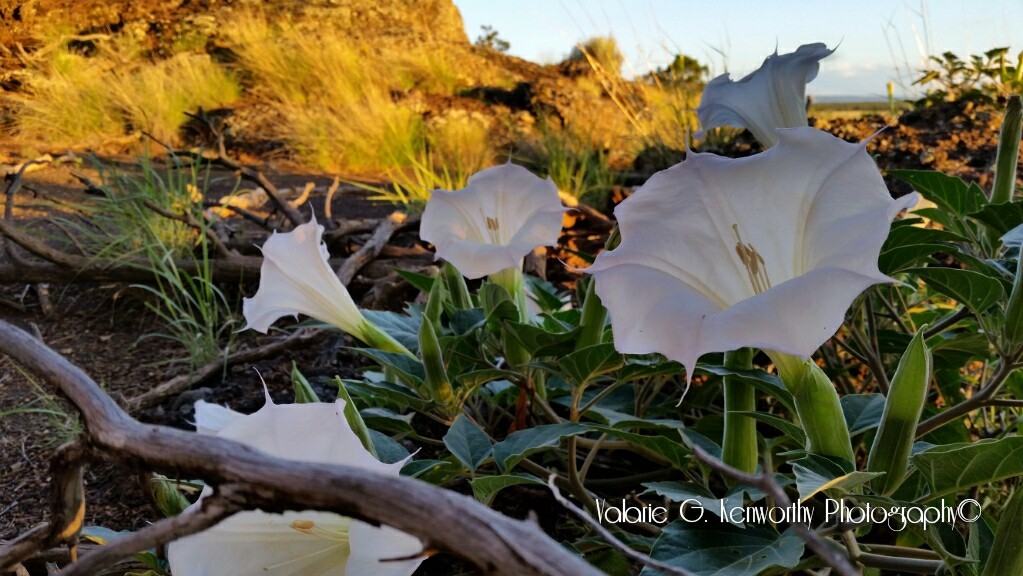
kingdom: Plantae
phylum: Tracheophyta
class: Magnoliopsida
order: Solanales
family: Solanaceae
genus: Datura
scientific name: Datura wrightii
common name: Sacred thorn-apple
